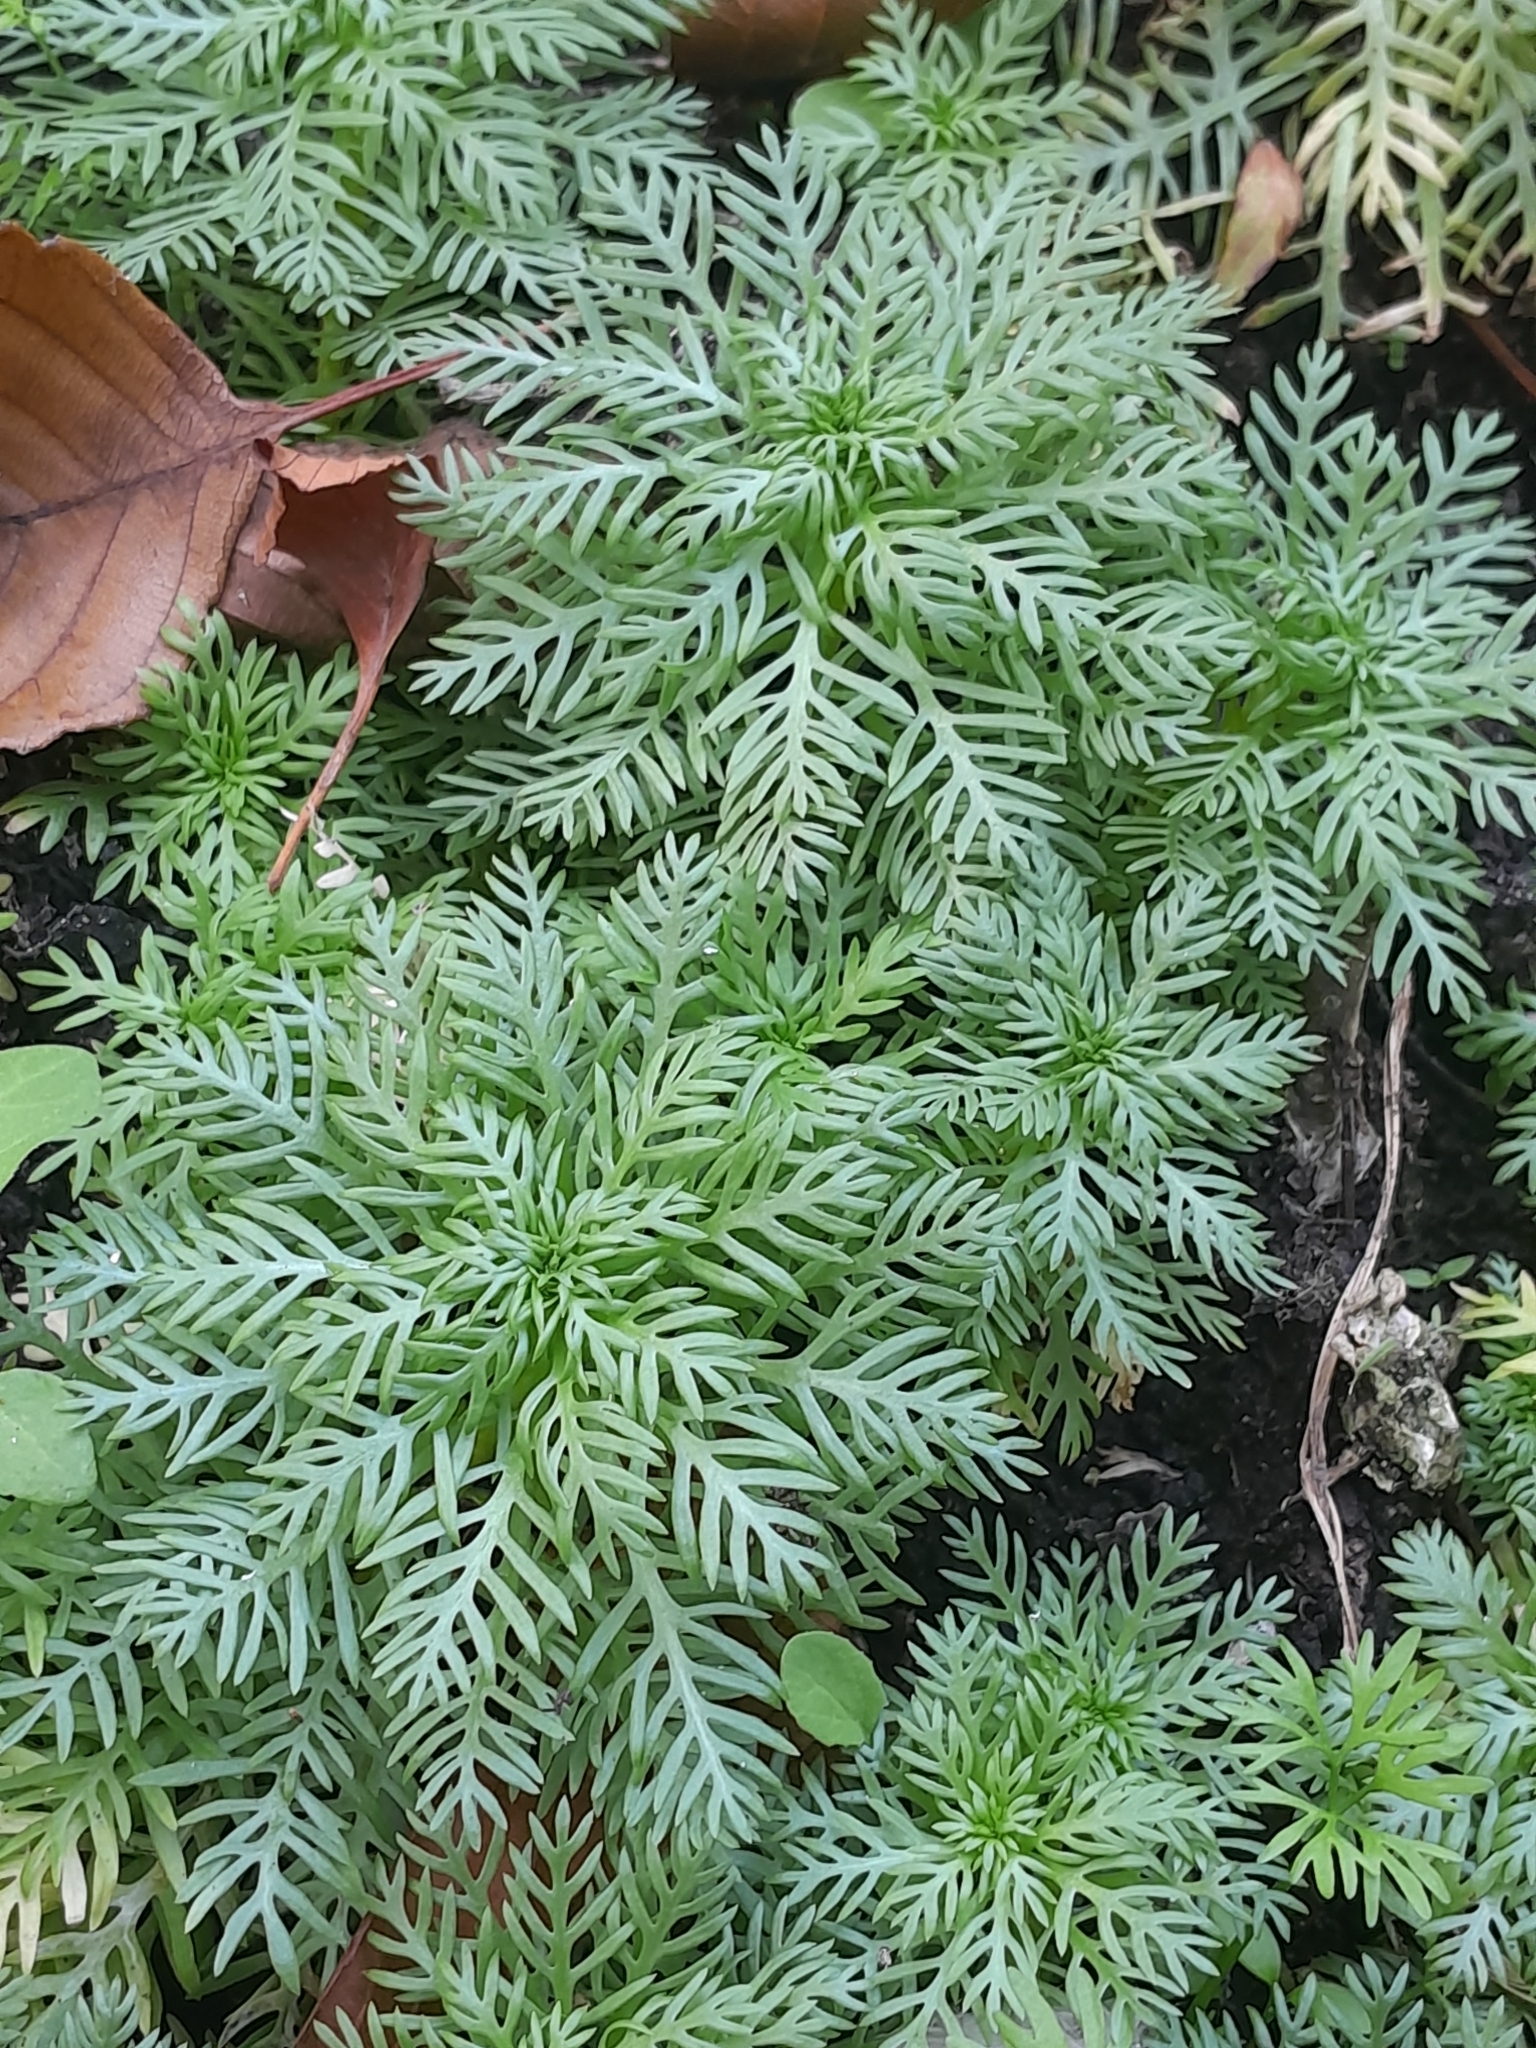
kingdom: Plantae
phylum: Tracheophyta
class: Magnoliopsida
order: Ericales
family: Primulaceae
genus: Hottonia
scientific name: Hottonia palustris
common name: Water-violet
